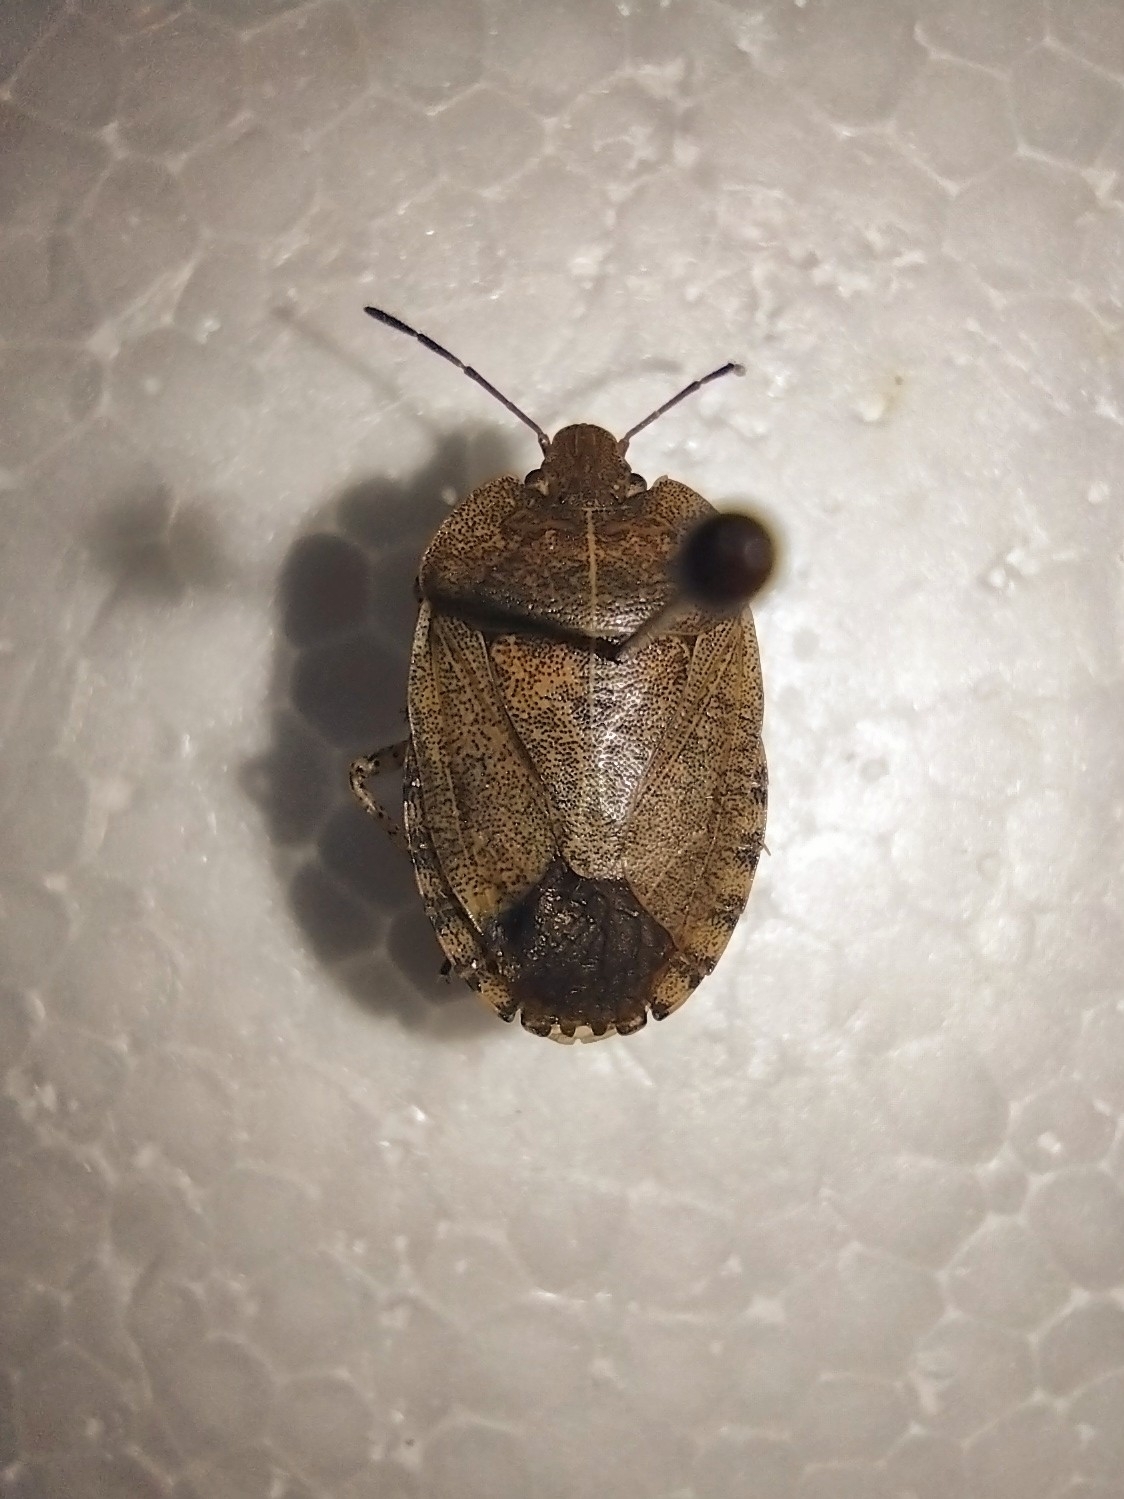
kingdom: Animalia
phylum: Arthropoda
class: Insecta
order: Hemiptera
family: Pentatomidae
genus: Menecles
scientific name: Menecles insertus
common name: Elf shoe stink bug
